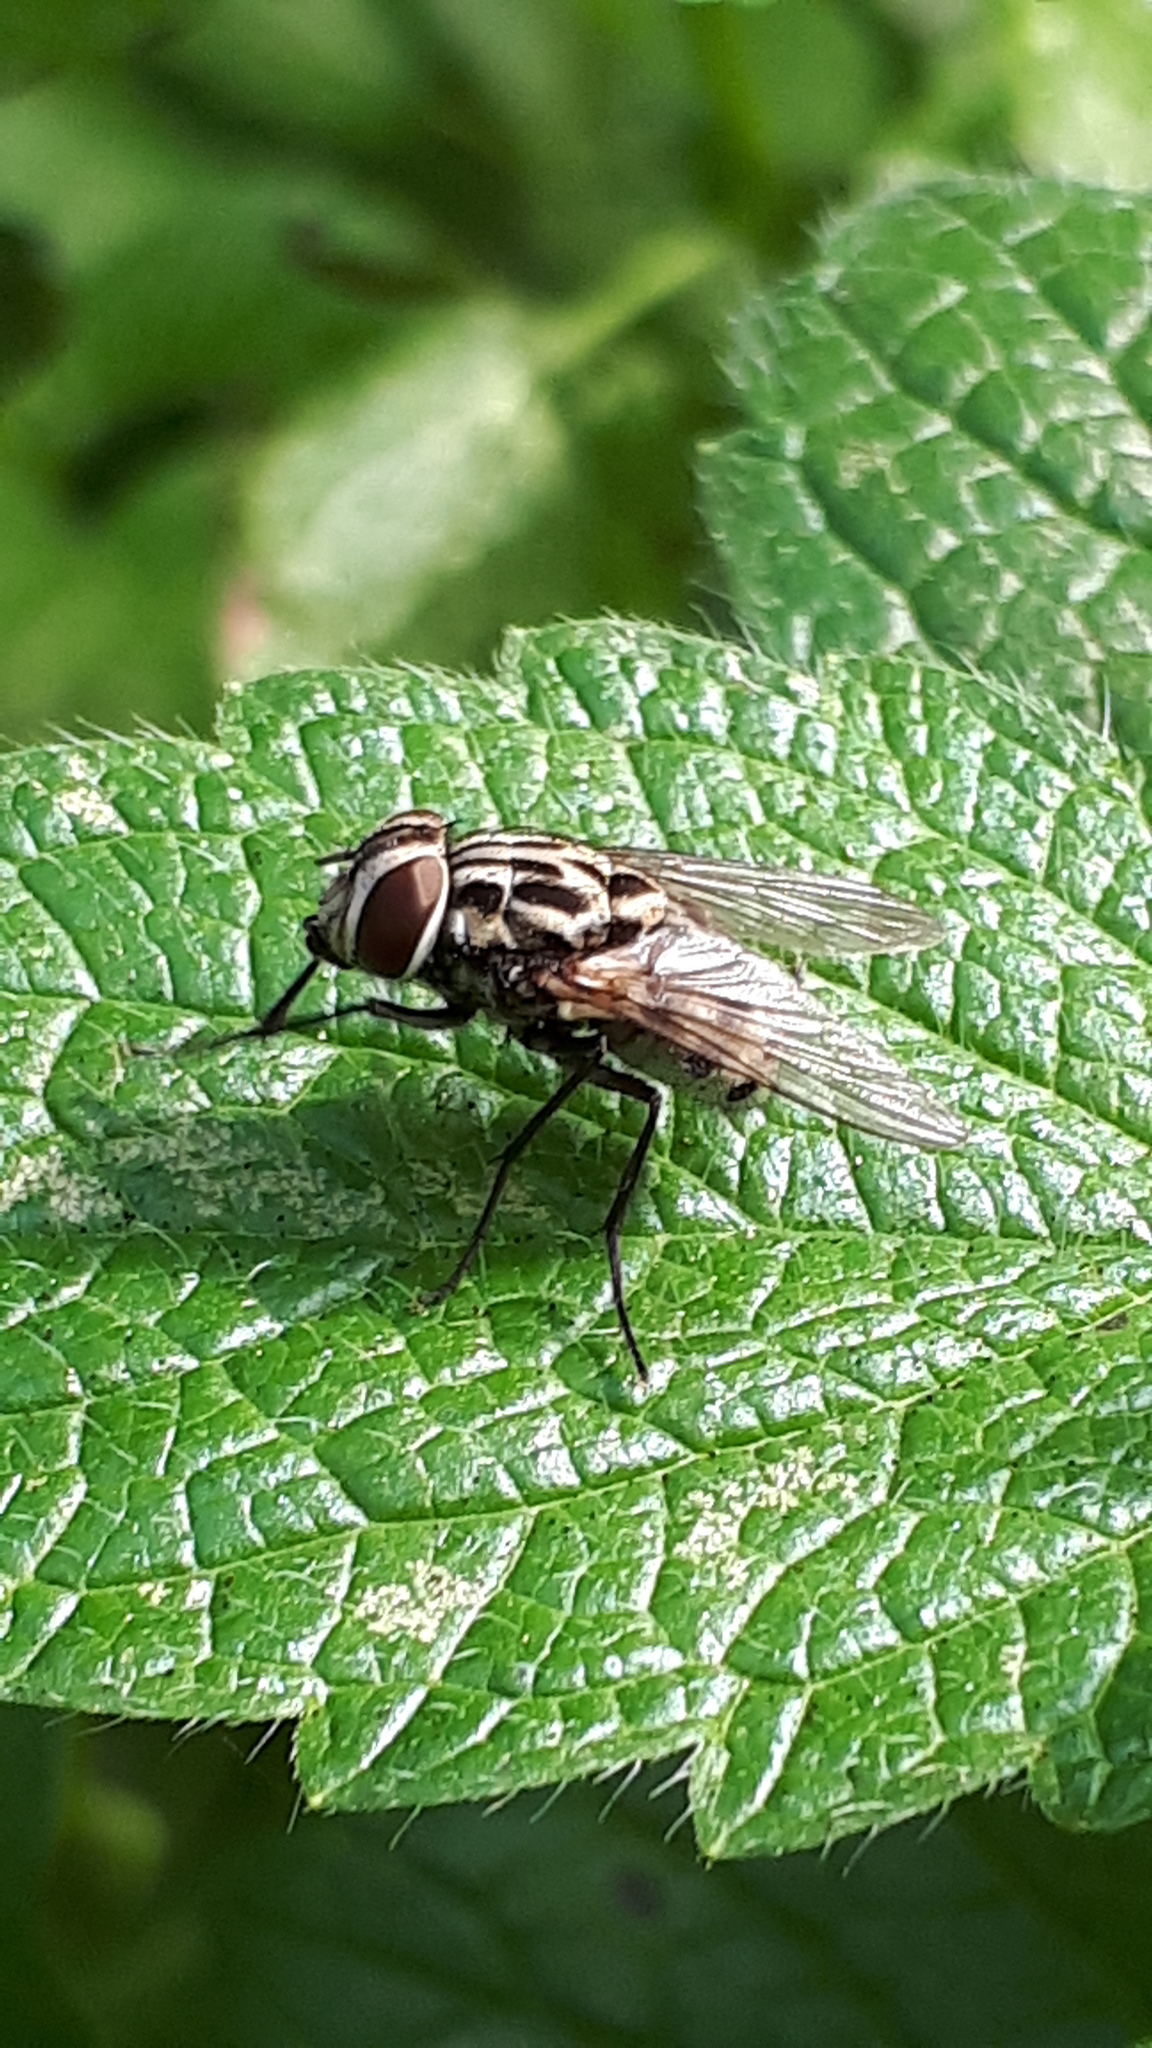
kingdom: Animalia
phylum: Arthropoda
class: Insecta
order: Diptera
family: Muscidae
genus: Graphomya
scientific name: Graphomya maculata
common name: Muscid fly
